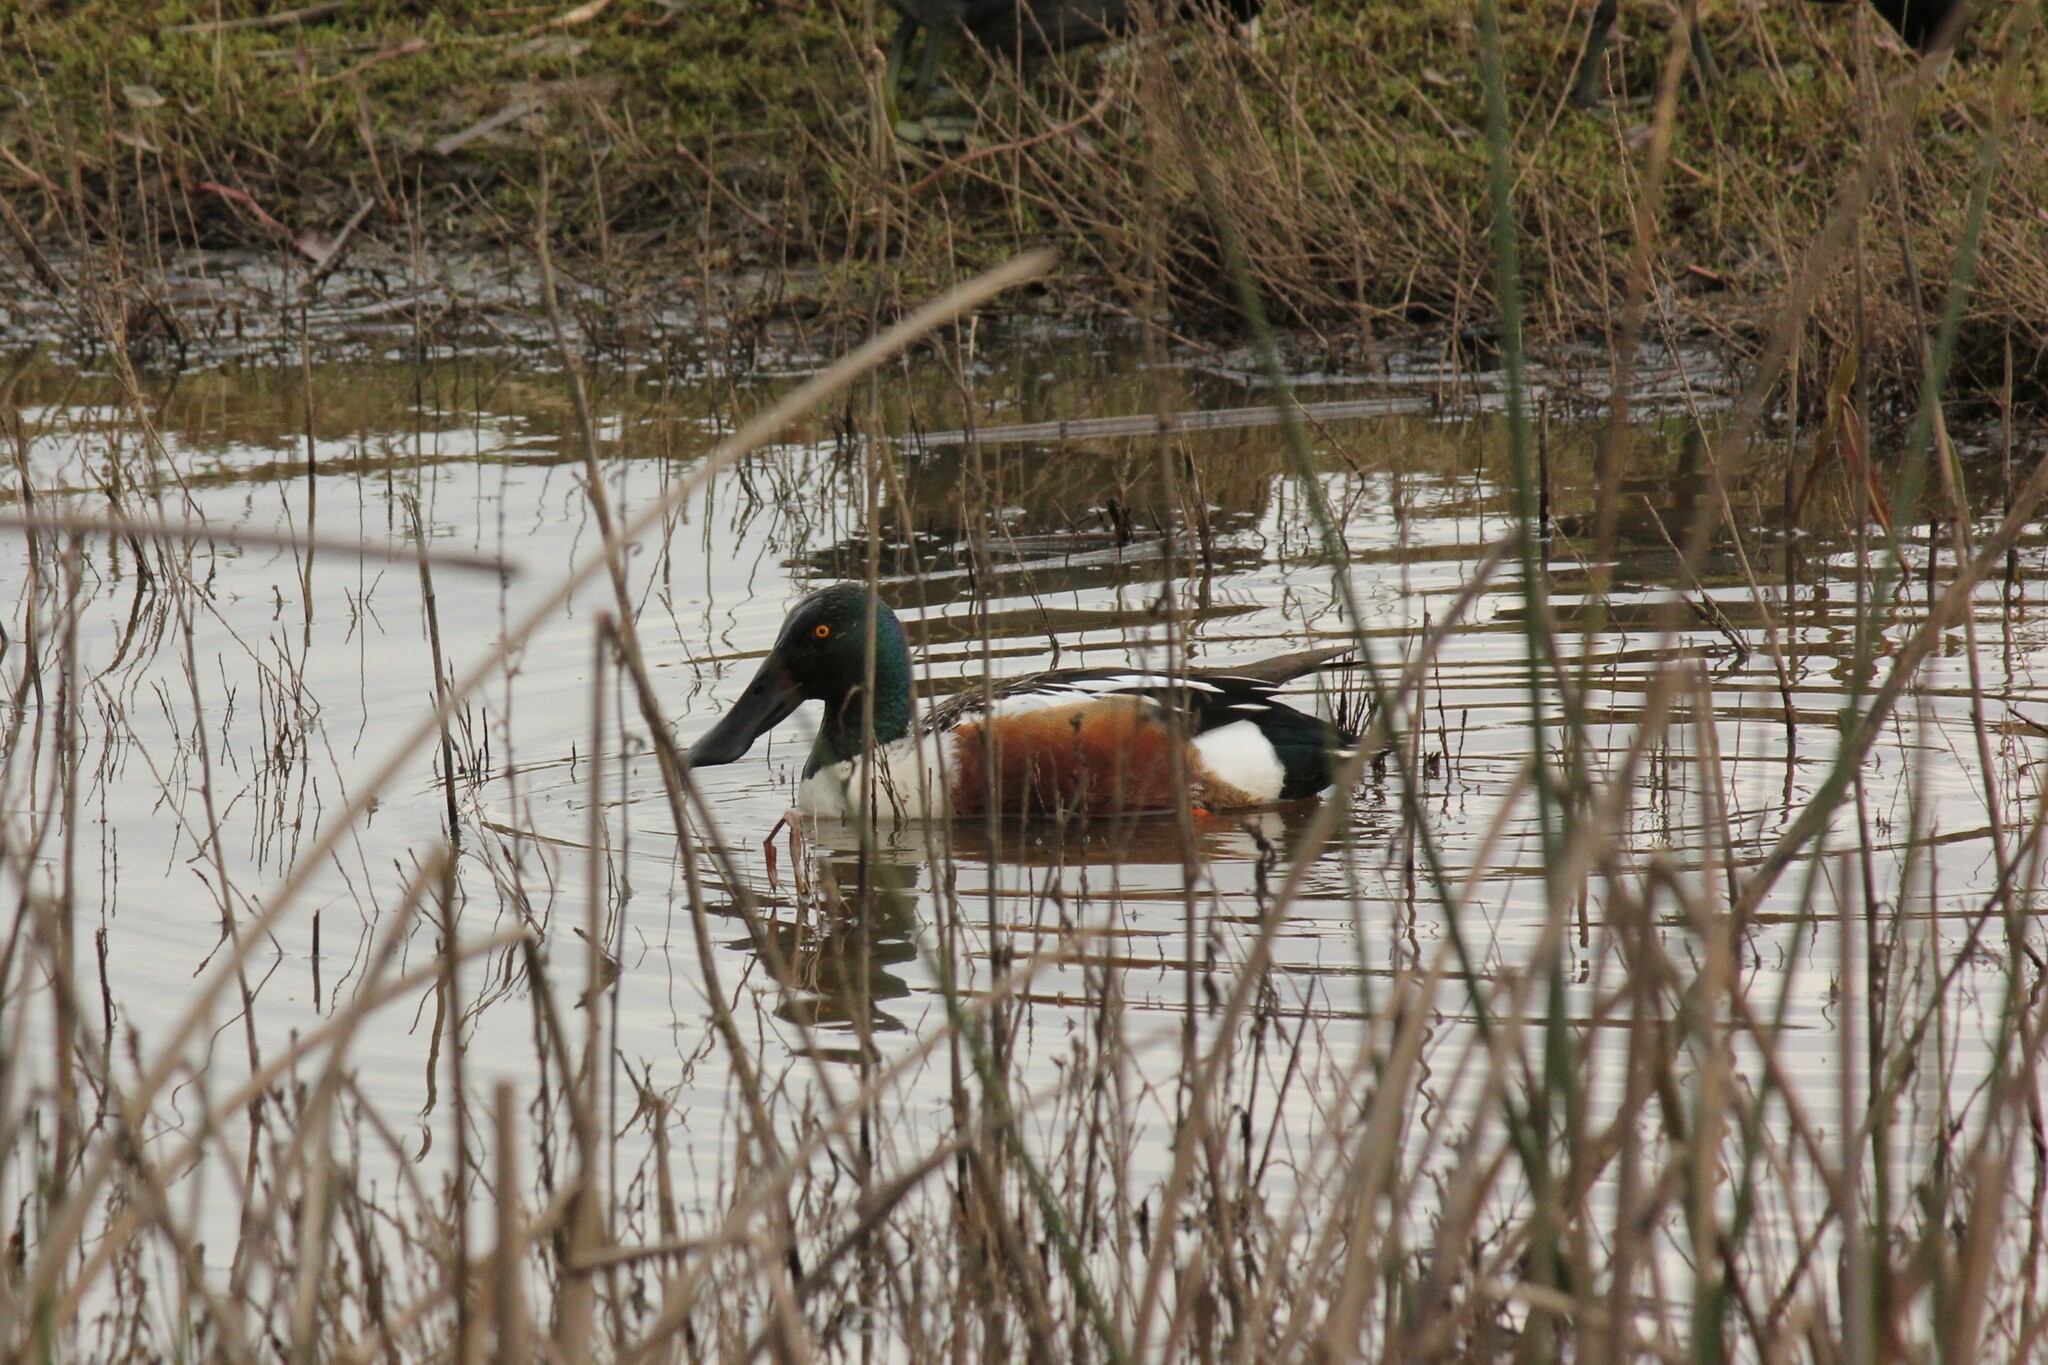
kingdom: Animalia
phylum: Chordata
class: Aves
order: Anseriformes
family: Anatidae
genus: Spatula
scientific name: Spatula clypeata
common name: Northern shoveler
